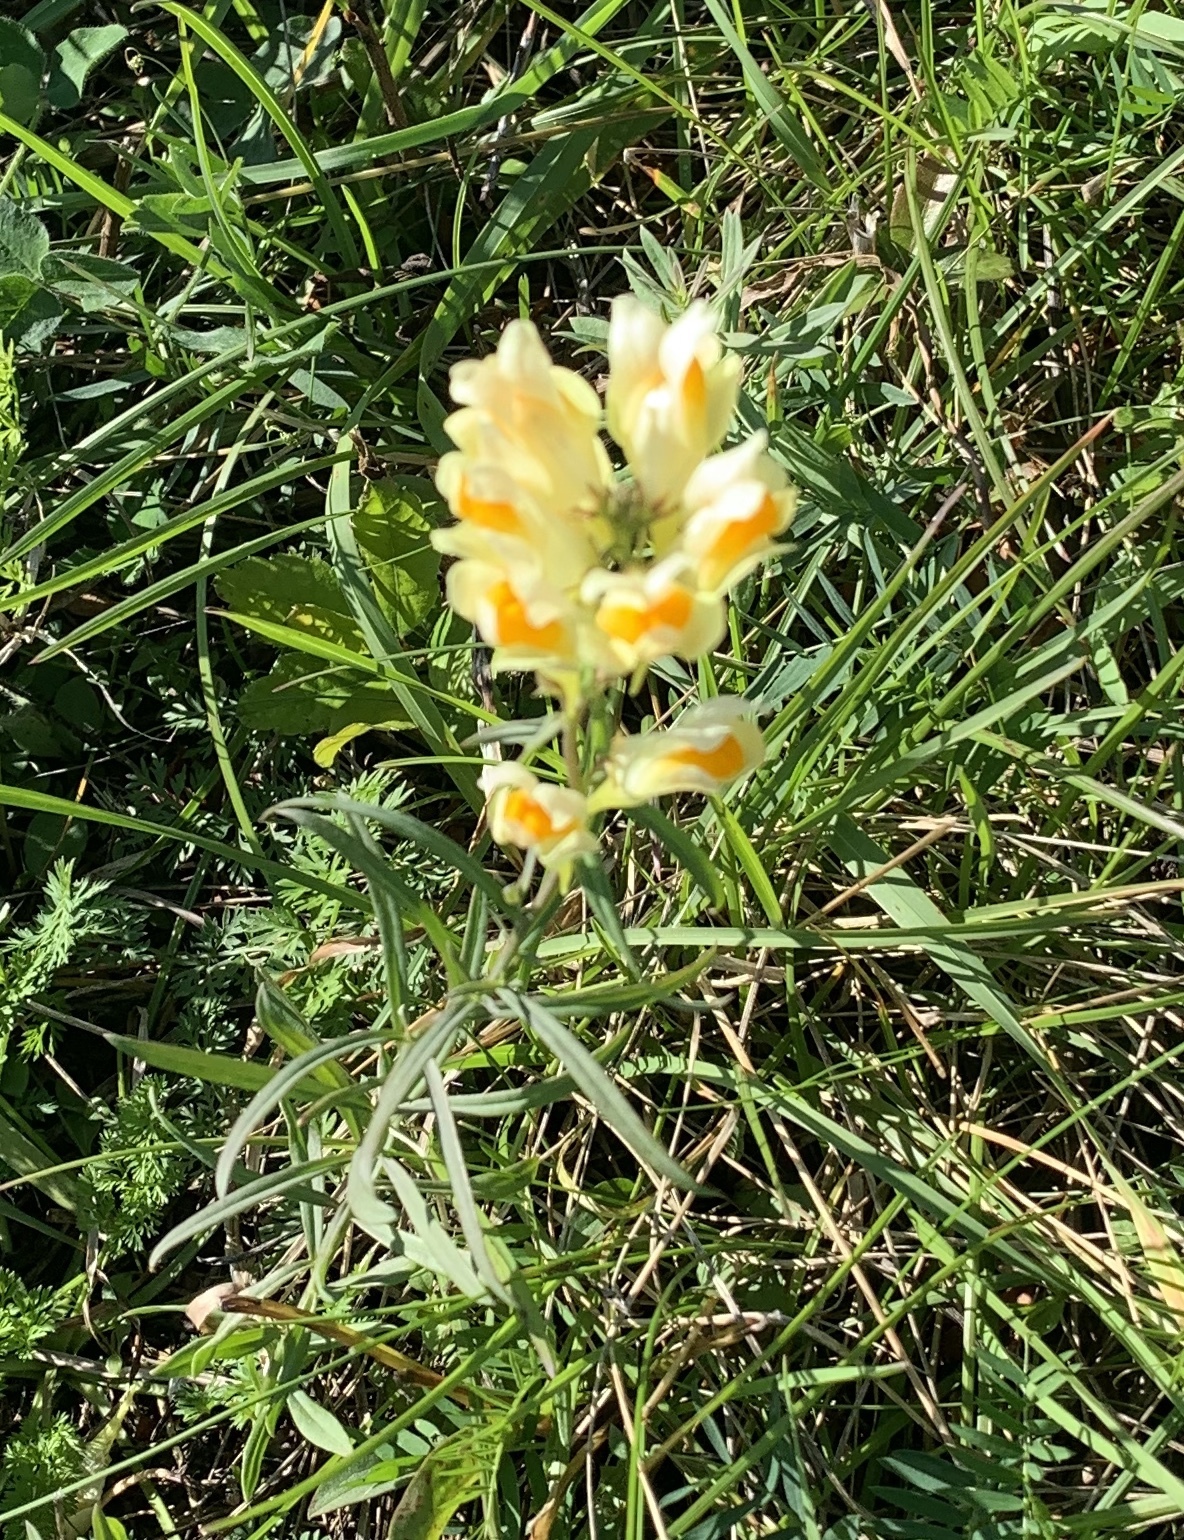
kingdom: Plantae
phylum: Tracheophyta
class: Magnoliopsida
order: Lamiales
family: Plantaginaceae
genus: Linaria
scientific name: Linaria vulgaris
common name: Butter and eggs
